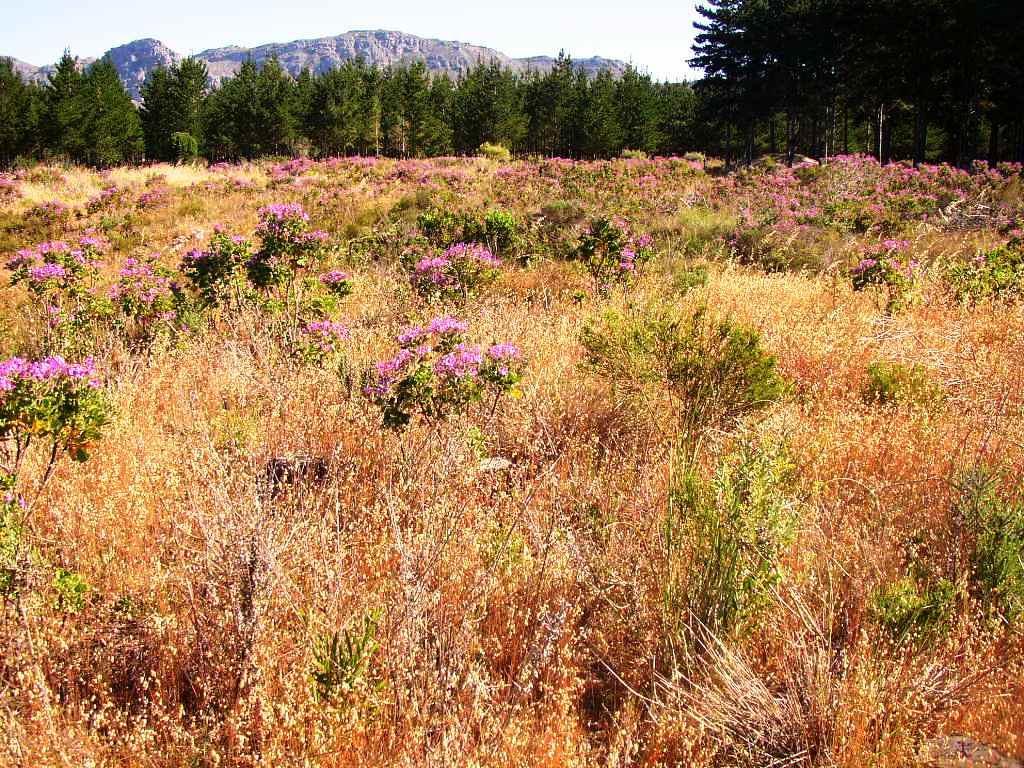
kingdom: Plantae
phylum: Tracheophyta
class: Liliopsida
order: Poales
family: Poaceae
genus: Briza
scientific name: Briza maxima
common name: Big quakinggrass
